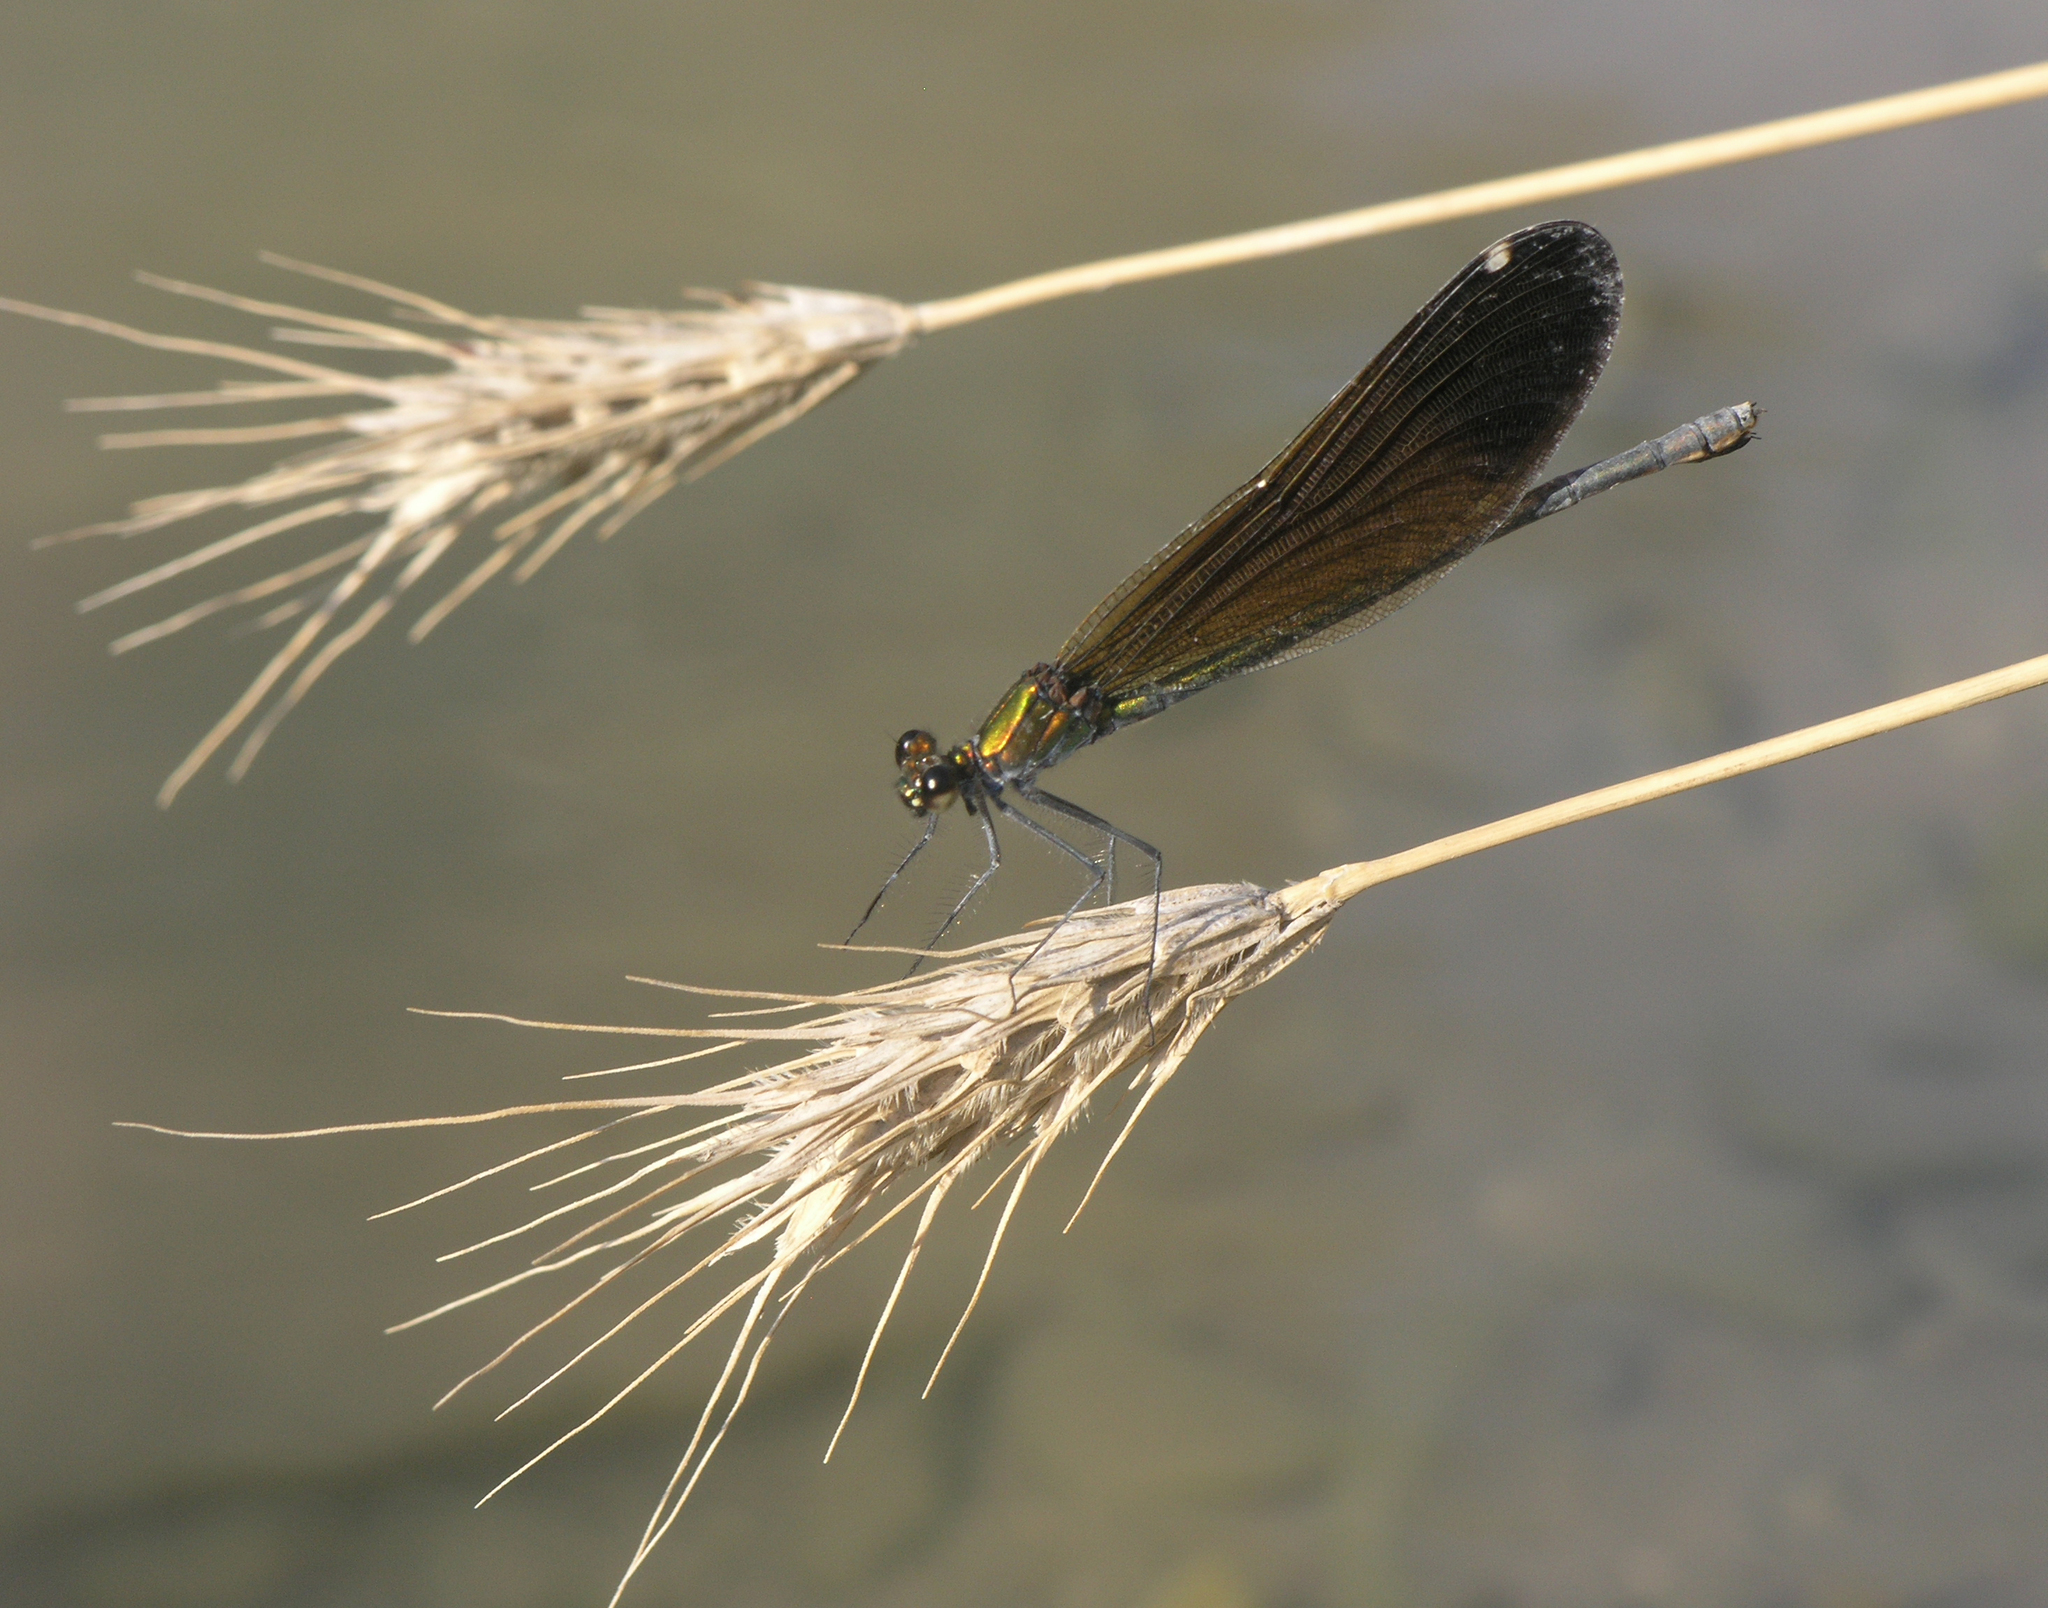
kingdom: Animalia
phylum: Arthropoda
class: Insecta
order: Odonata
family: Calopterygidae
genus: Calopteryx
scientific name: Calopteryx virgo
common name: Beautiful demoiselle
